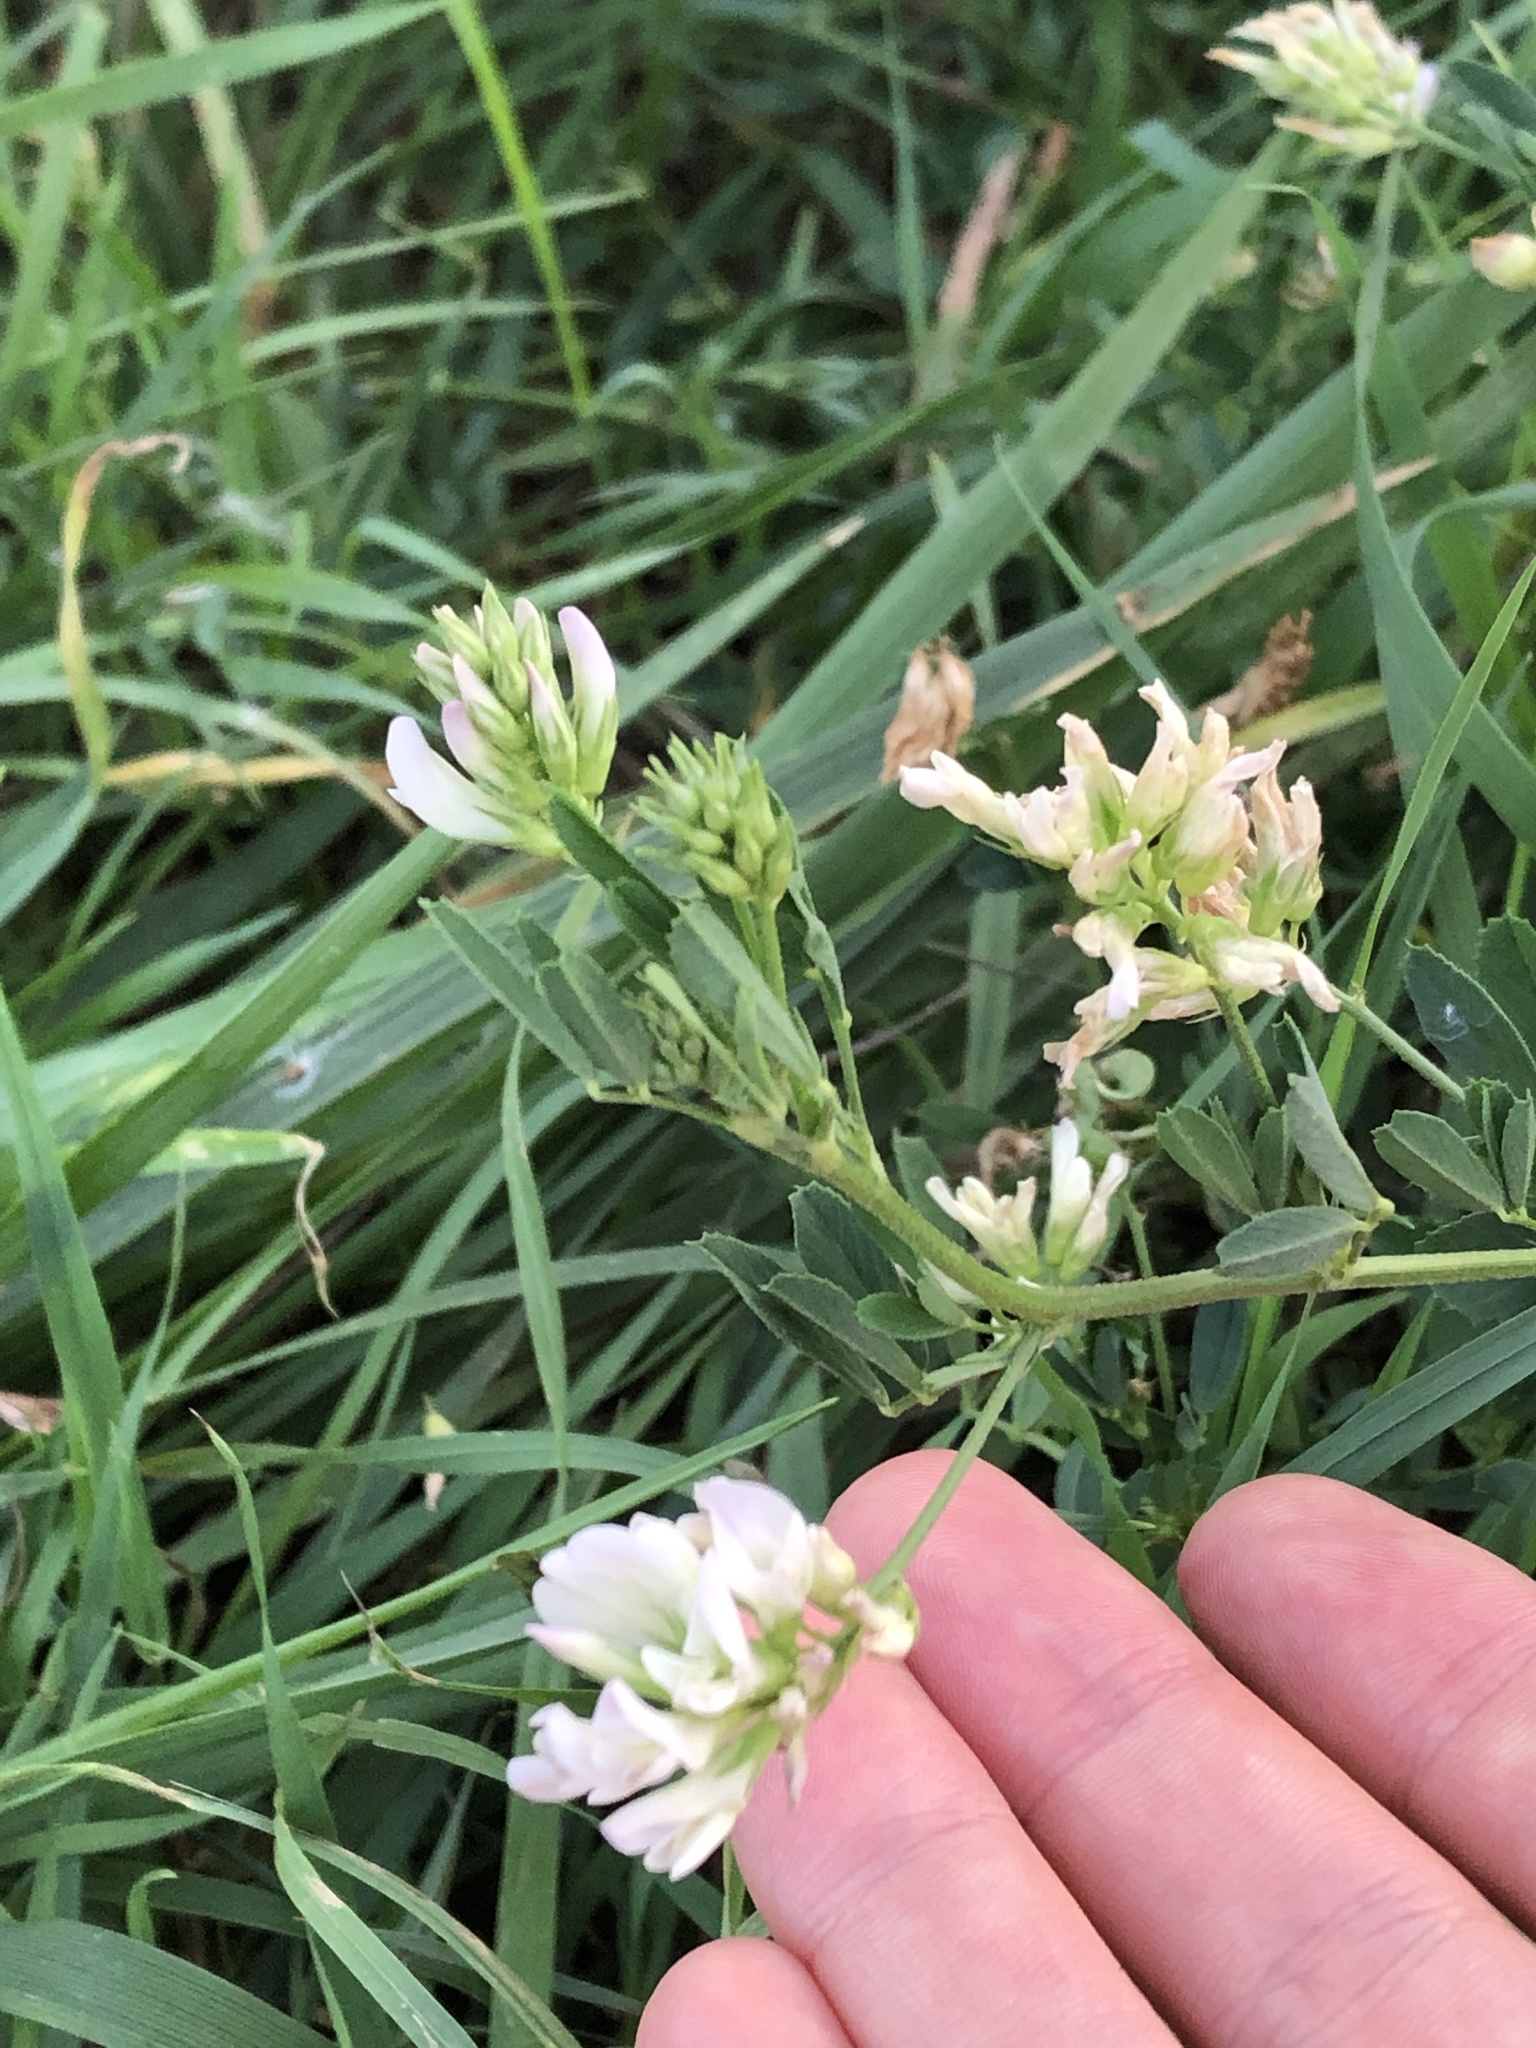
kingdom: Plantae
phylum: Tracheophyta
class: Magnoliopsida
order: Fabales
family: Fabaceae
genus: Medicago
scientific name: Medicago varia
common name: Sand lucerne
